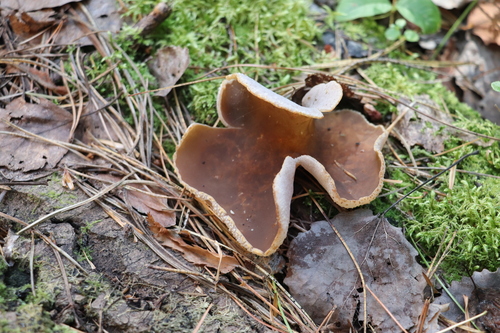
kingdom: Fungi
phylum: Ascomycota
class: Pezizomycetes
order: Pezizales
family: Pezizaceae
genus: Peziza
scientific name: Peziza varia
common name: Layered cup
